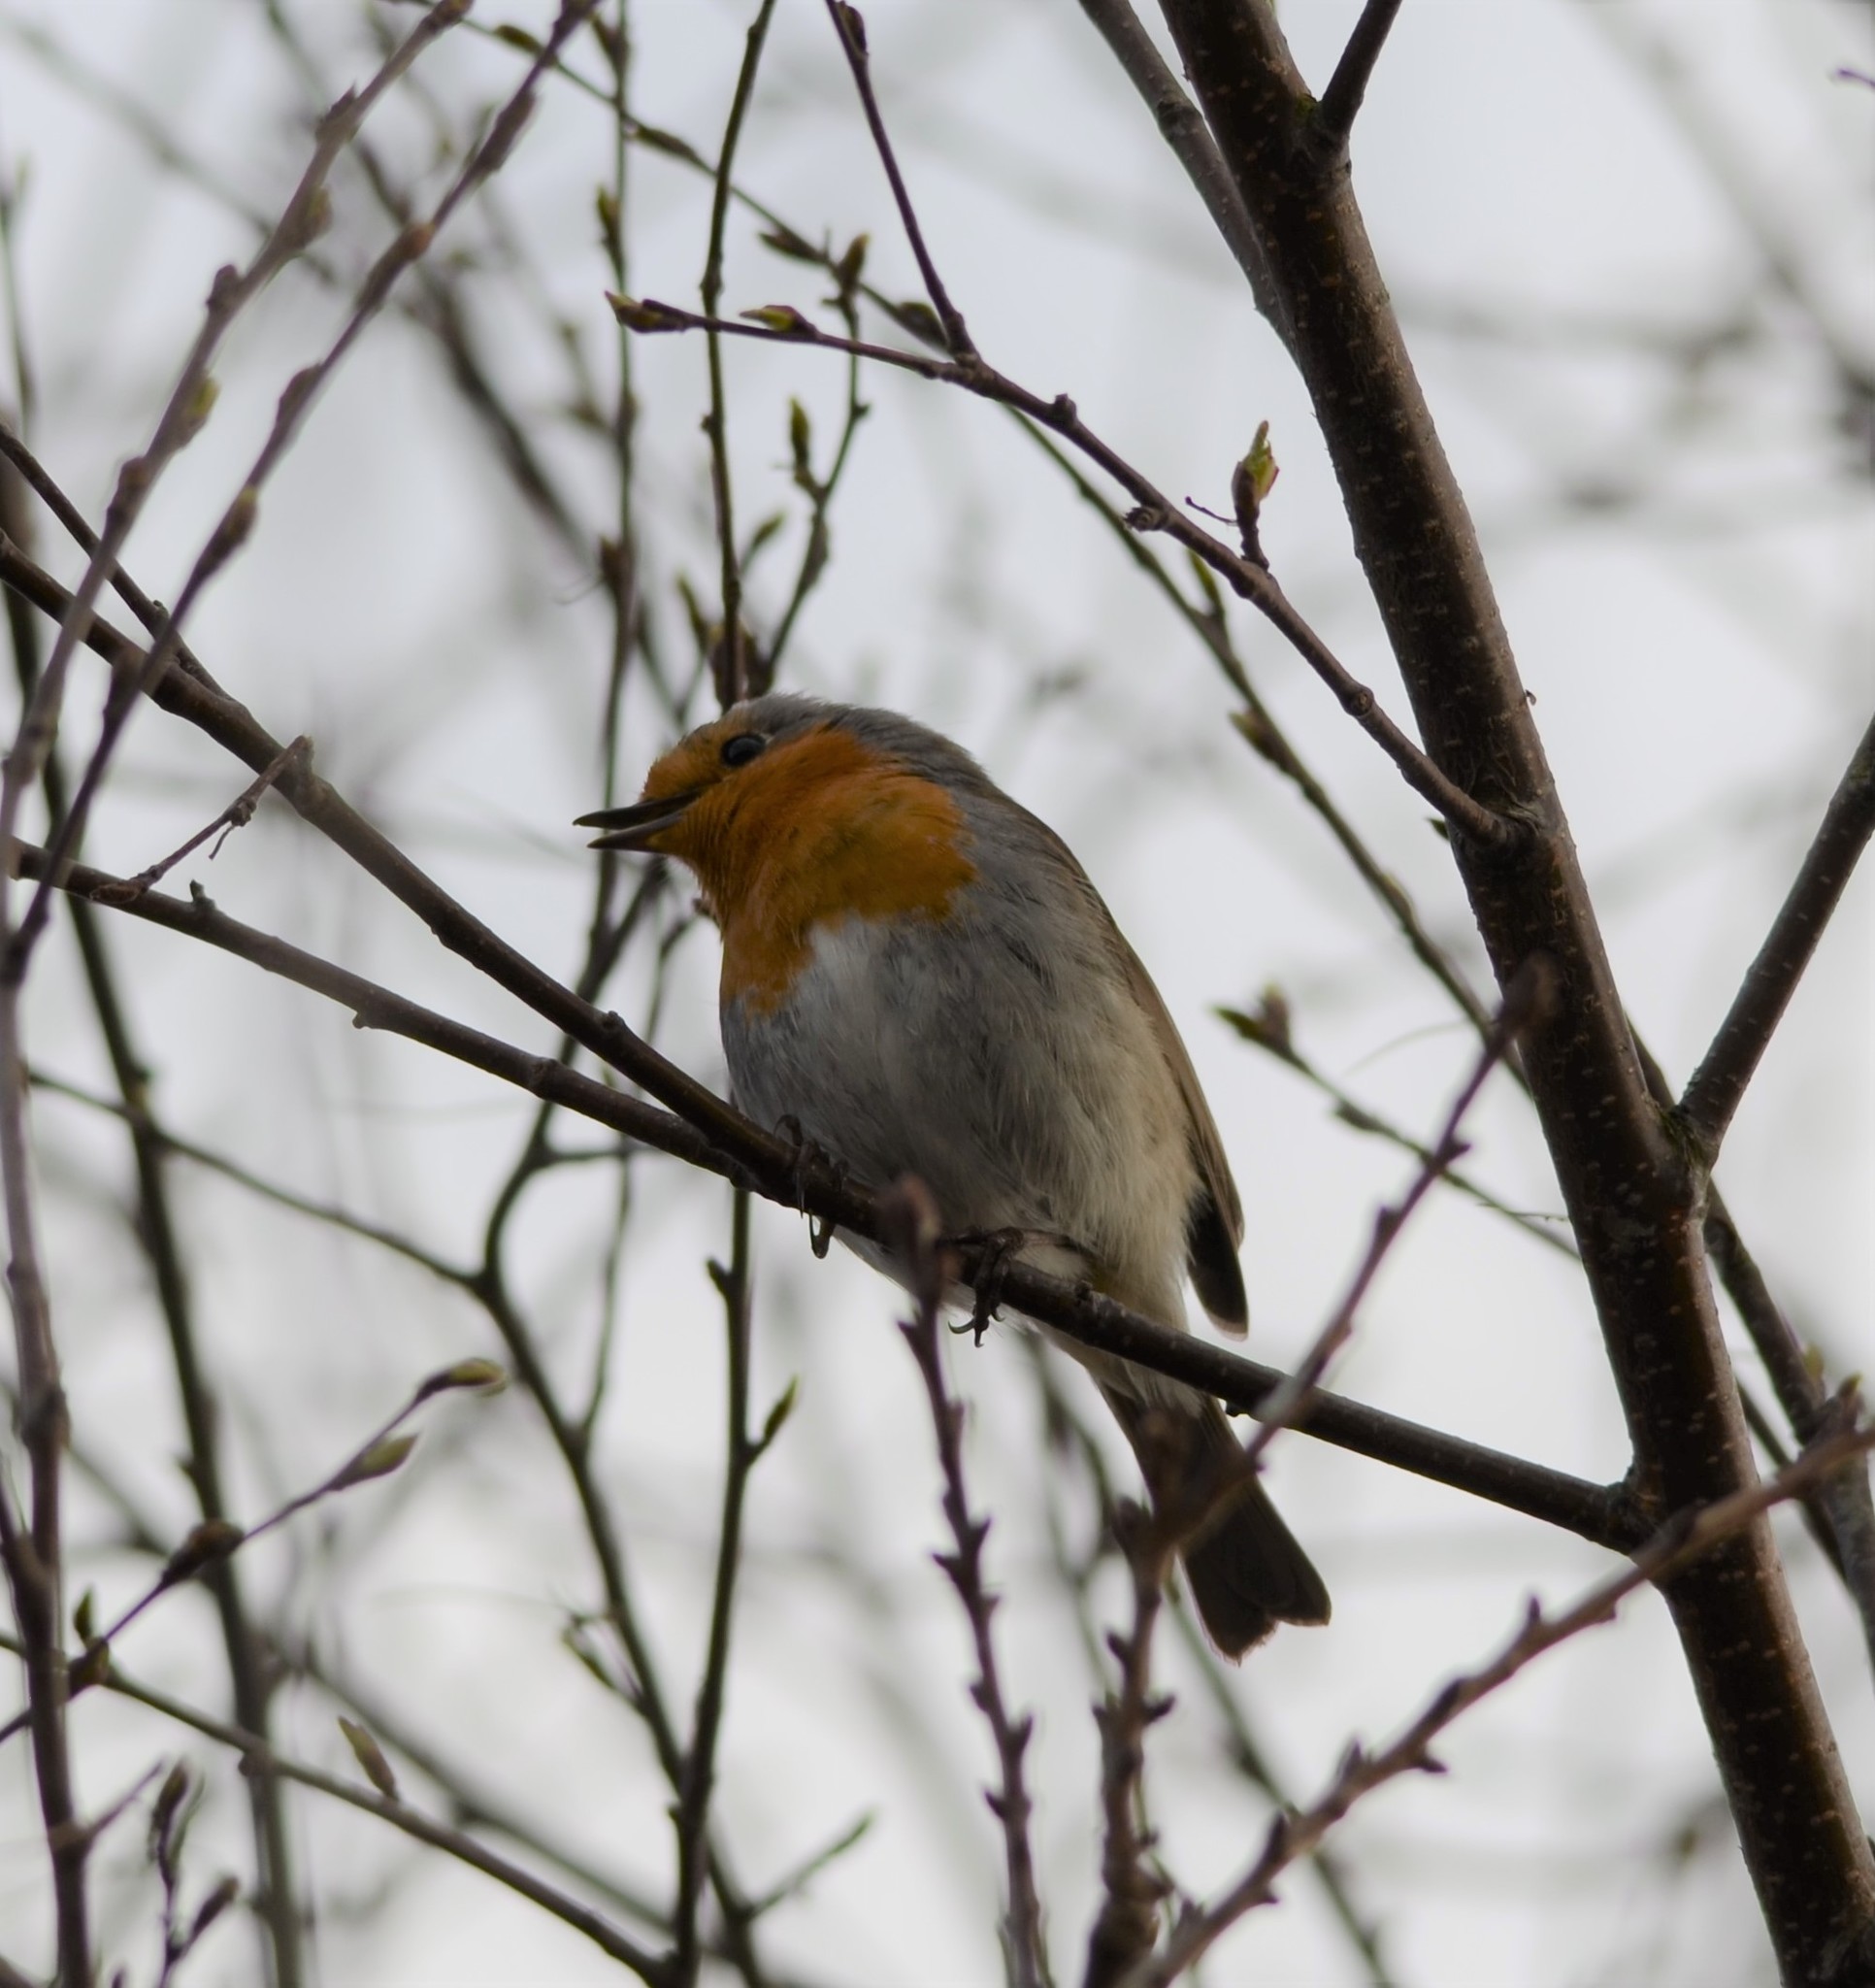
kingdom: Animalia
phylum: Chordata
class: Aves
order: Passeriformes
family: Muscicapidae
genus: Erithacus
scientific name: Erithacus rubecula
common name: European robin
